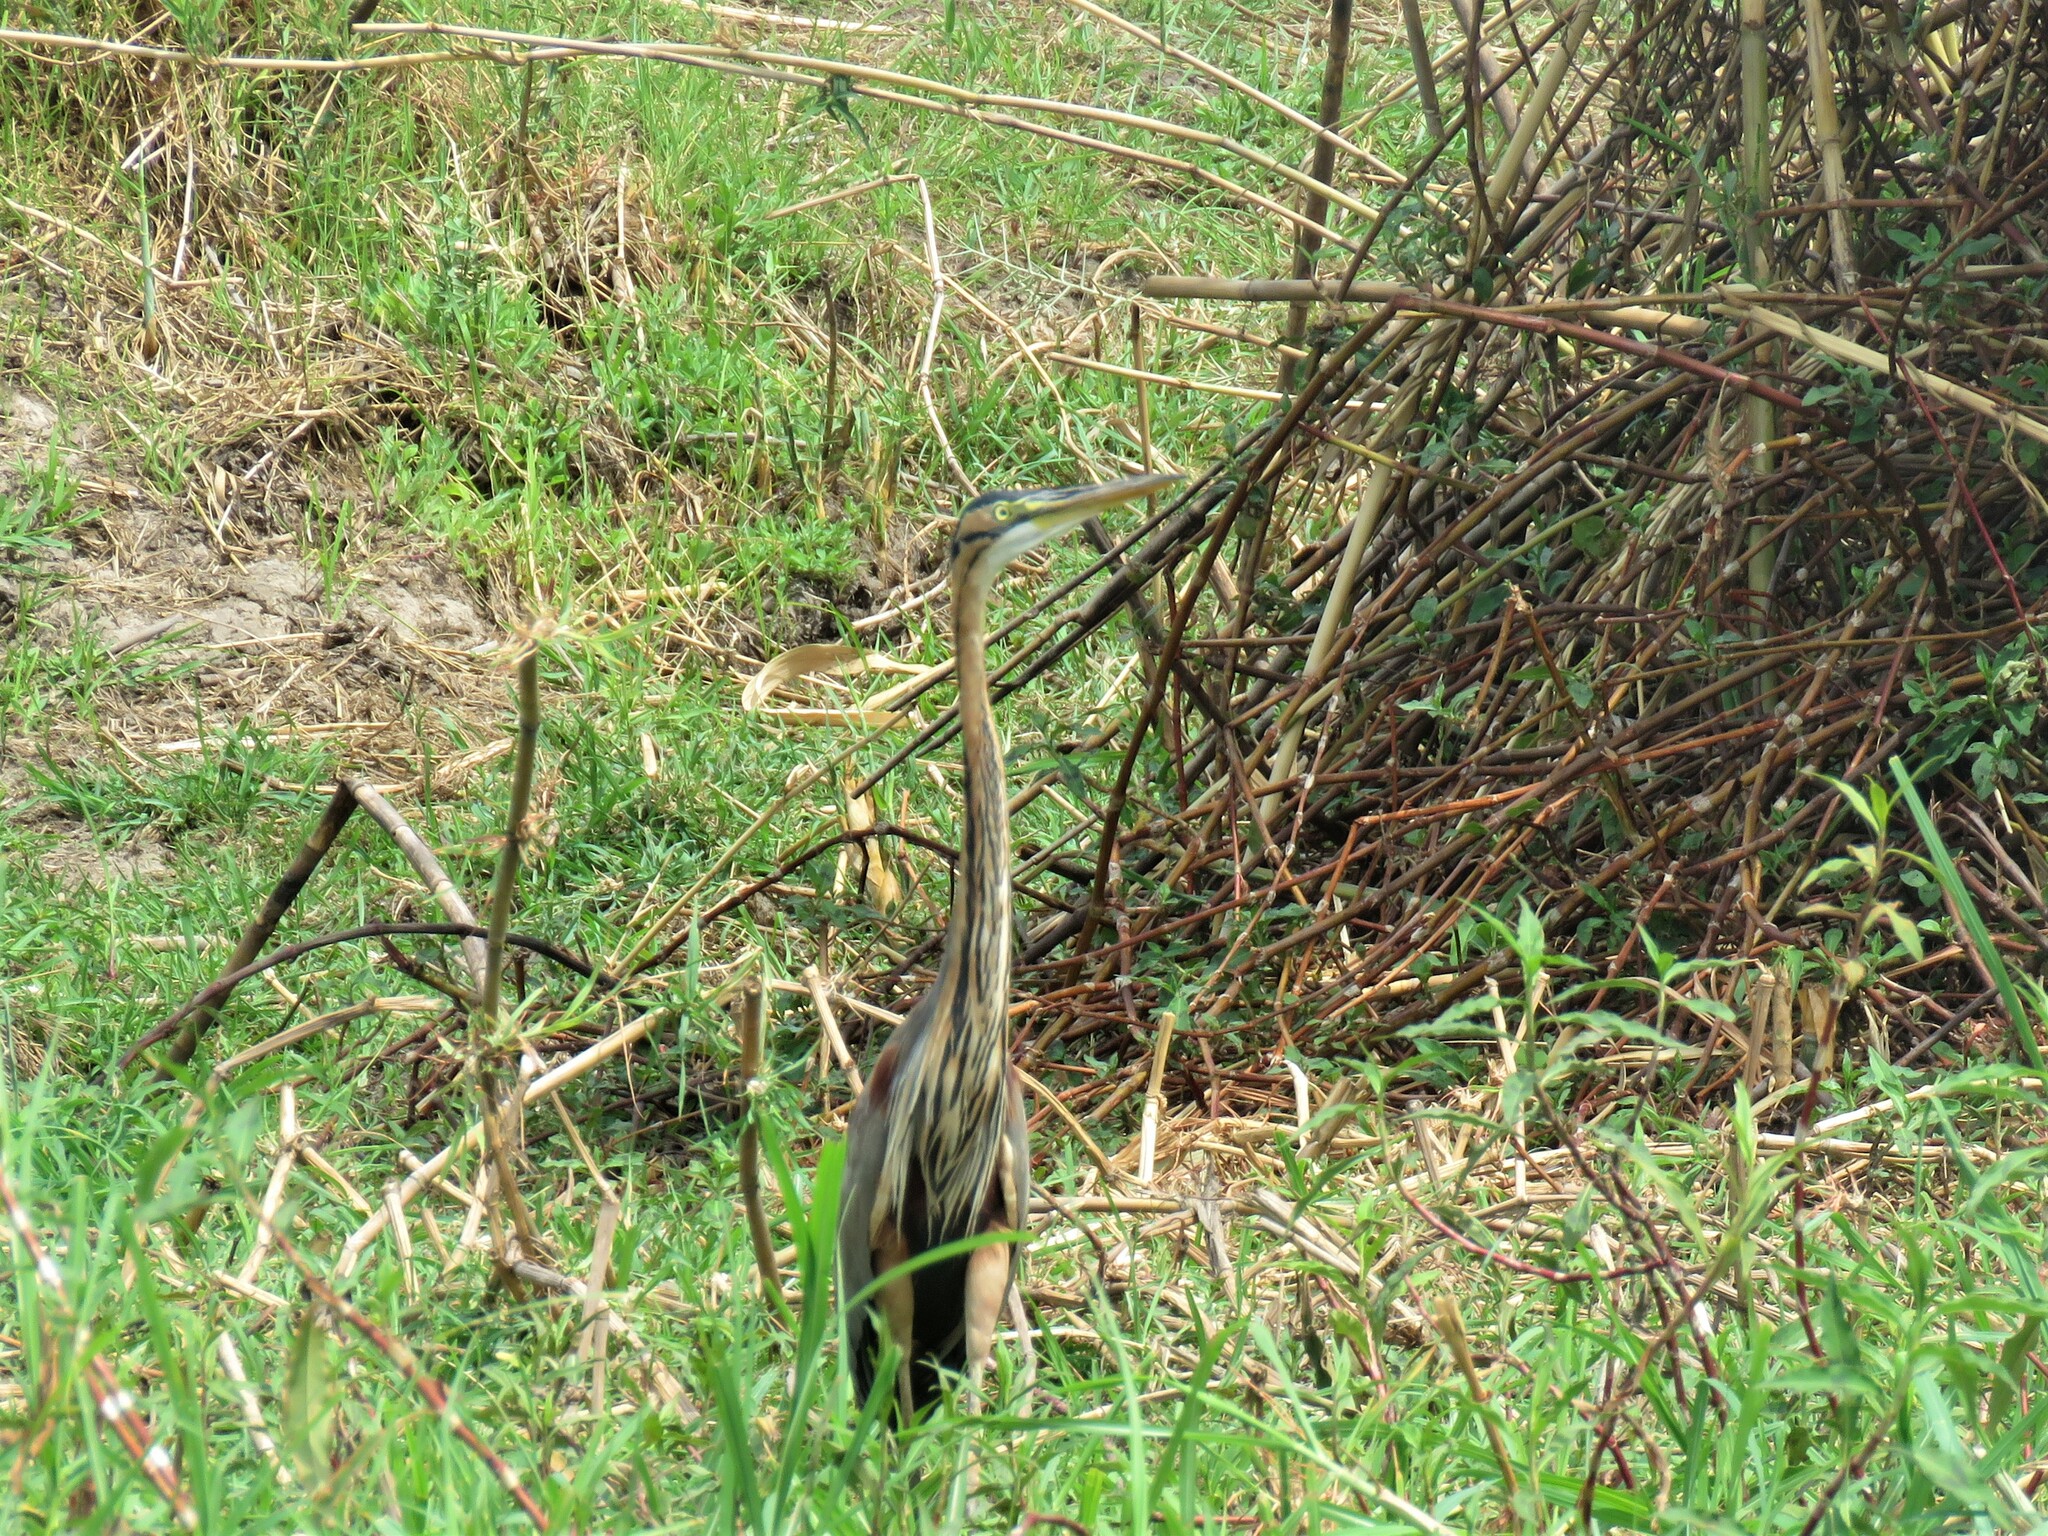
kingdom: Animalia
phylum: Chordata
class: Aves
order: Pelecaniformes
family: Ardeidae
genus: Ardea
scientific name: Ardea purpurea
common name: Purple heron
